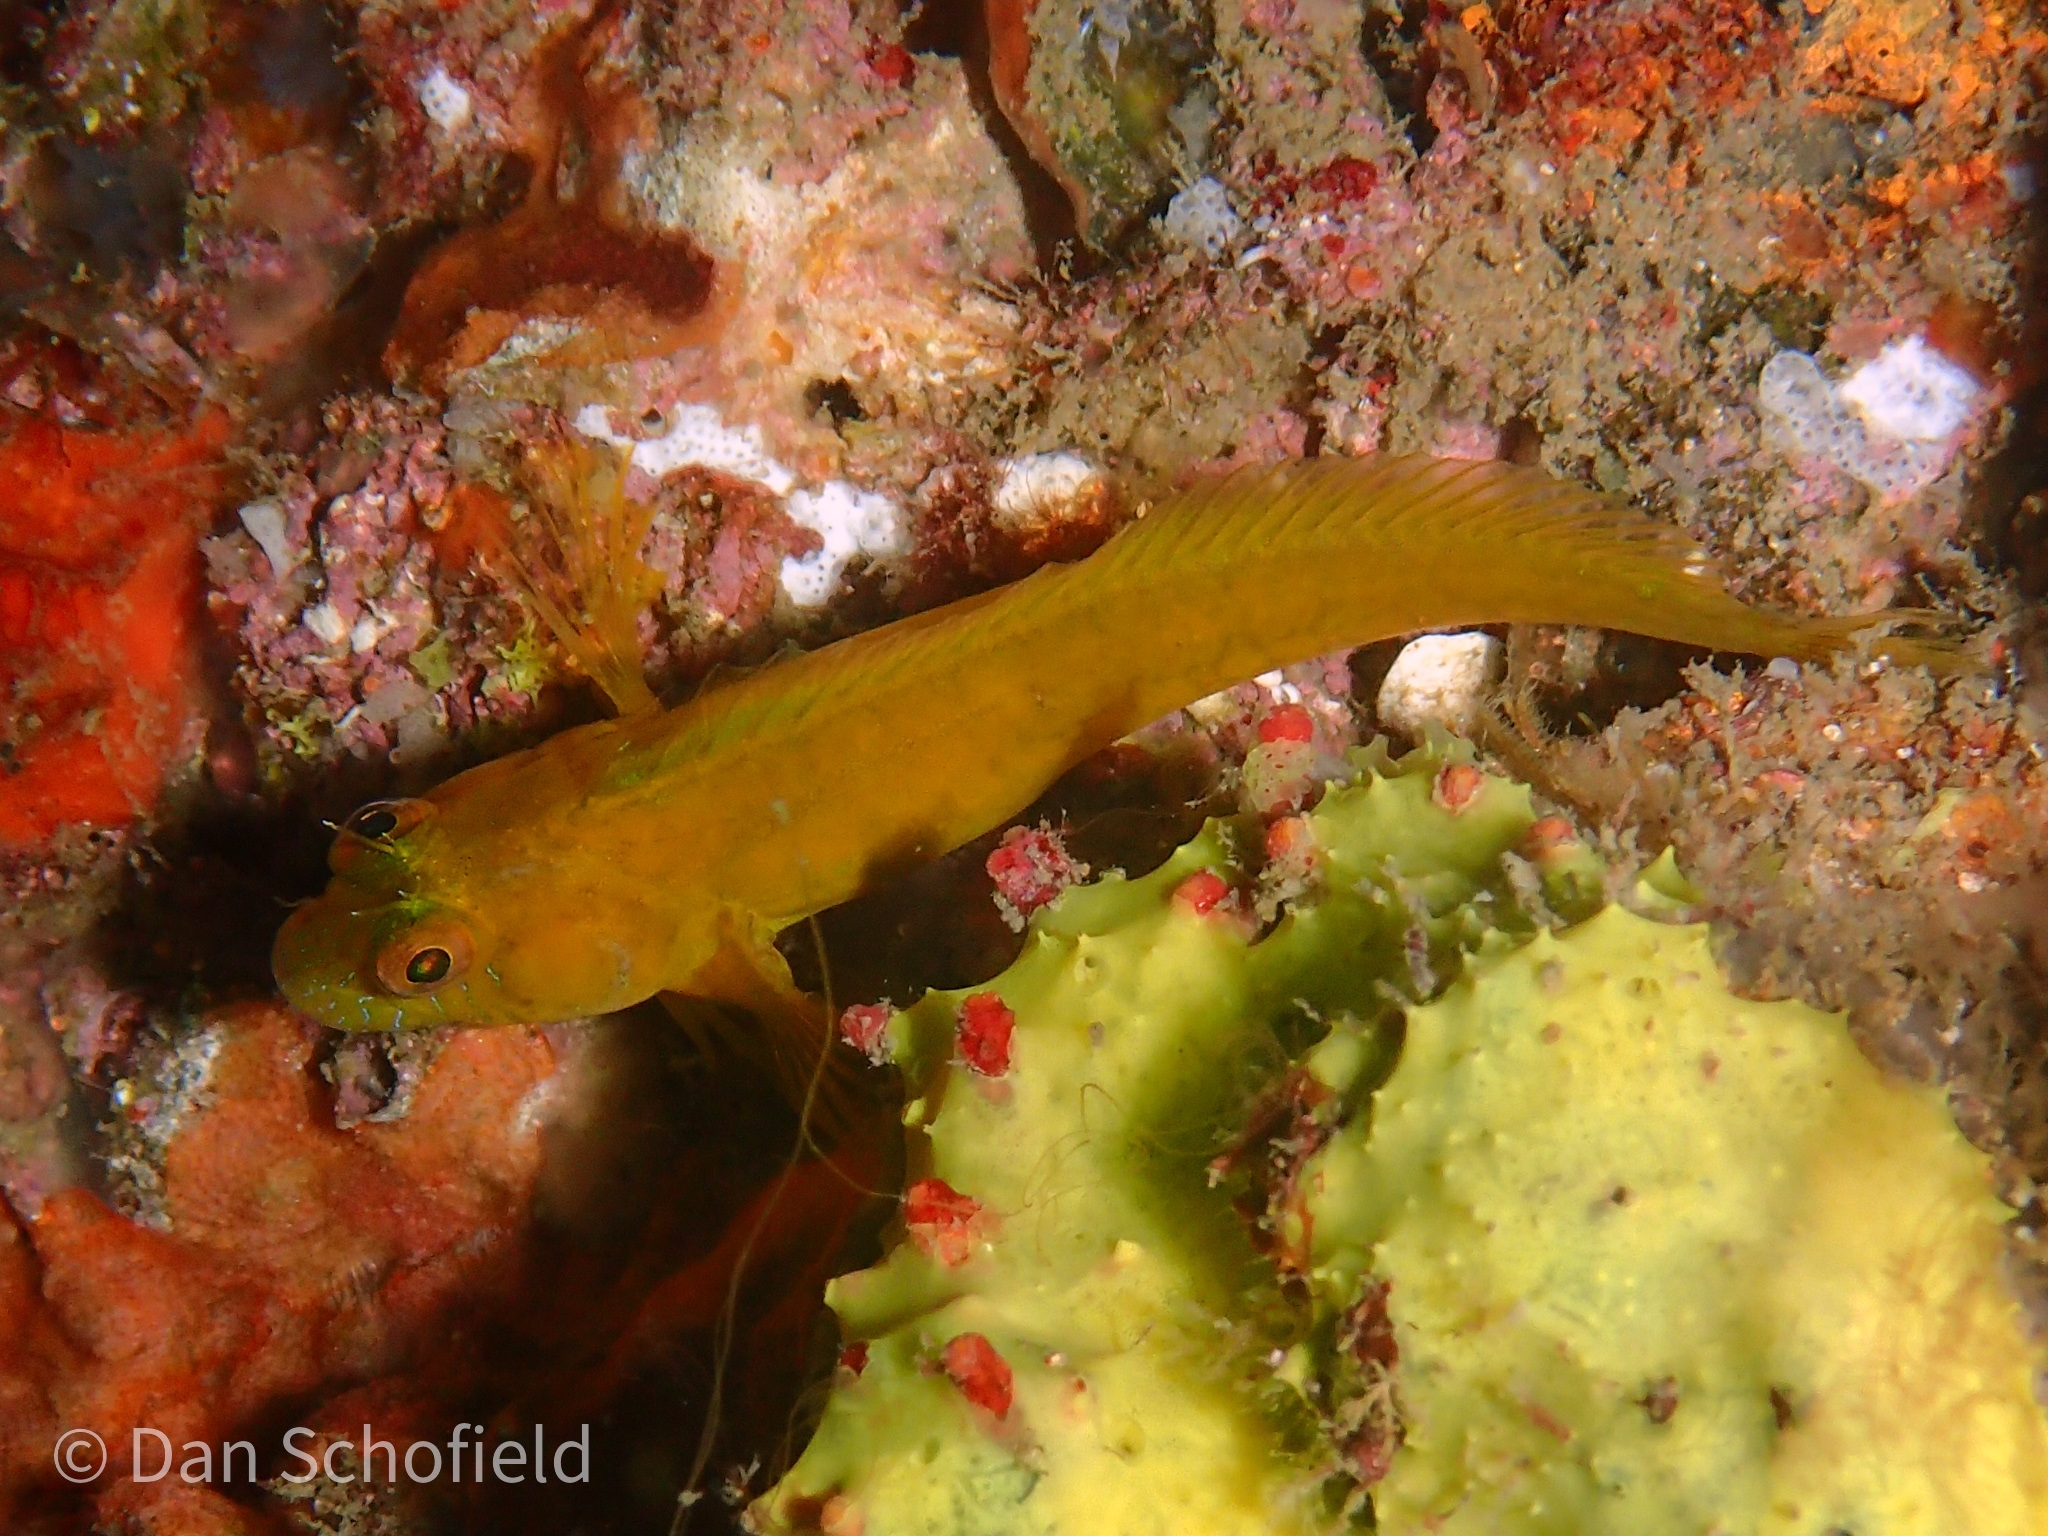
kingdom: Animalia
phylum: Chordata
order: Perciformes
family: Blenniidae
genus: Parablennius
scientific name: Parablennius marmoreus
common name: Seaweed blenny
